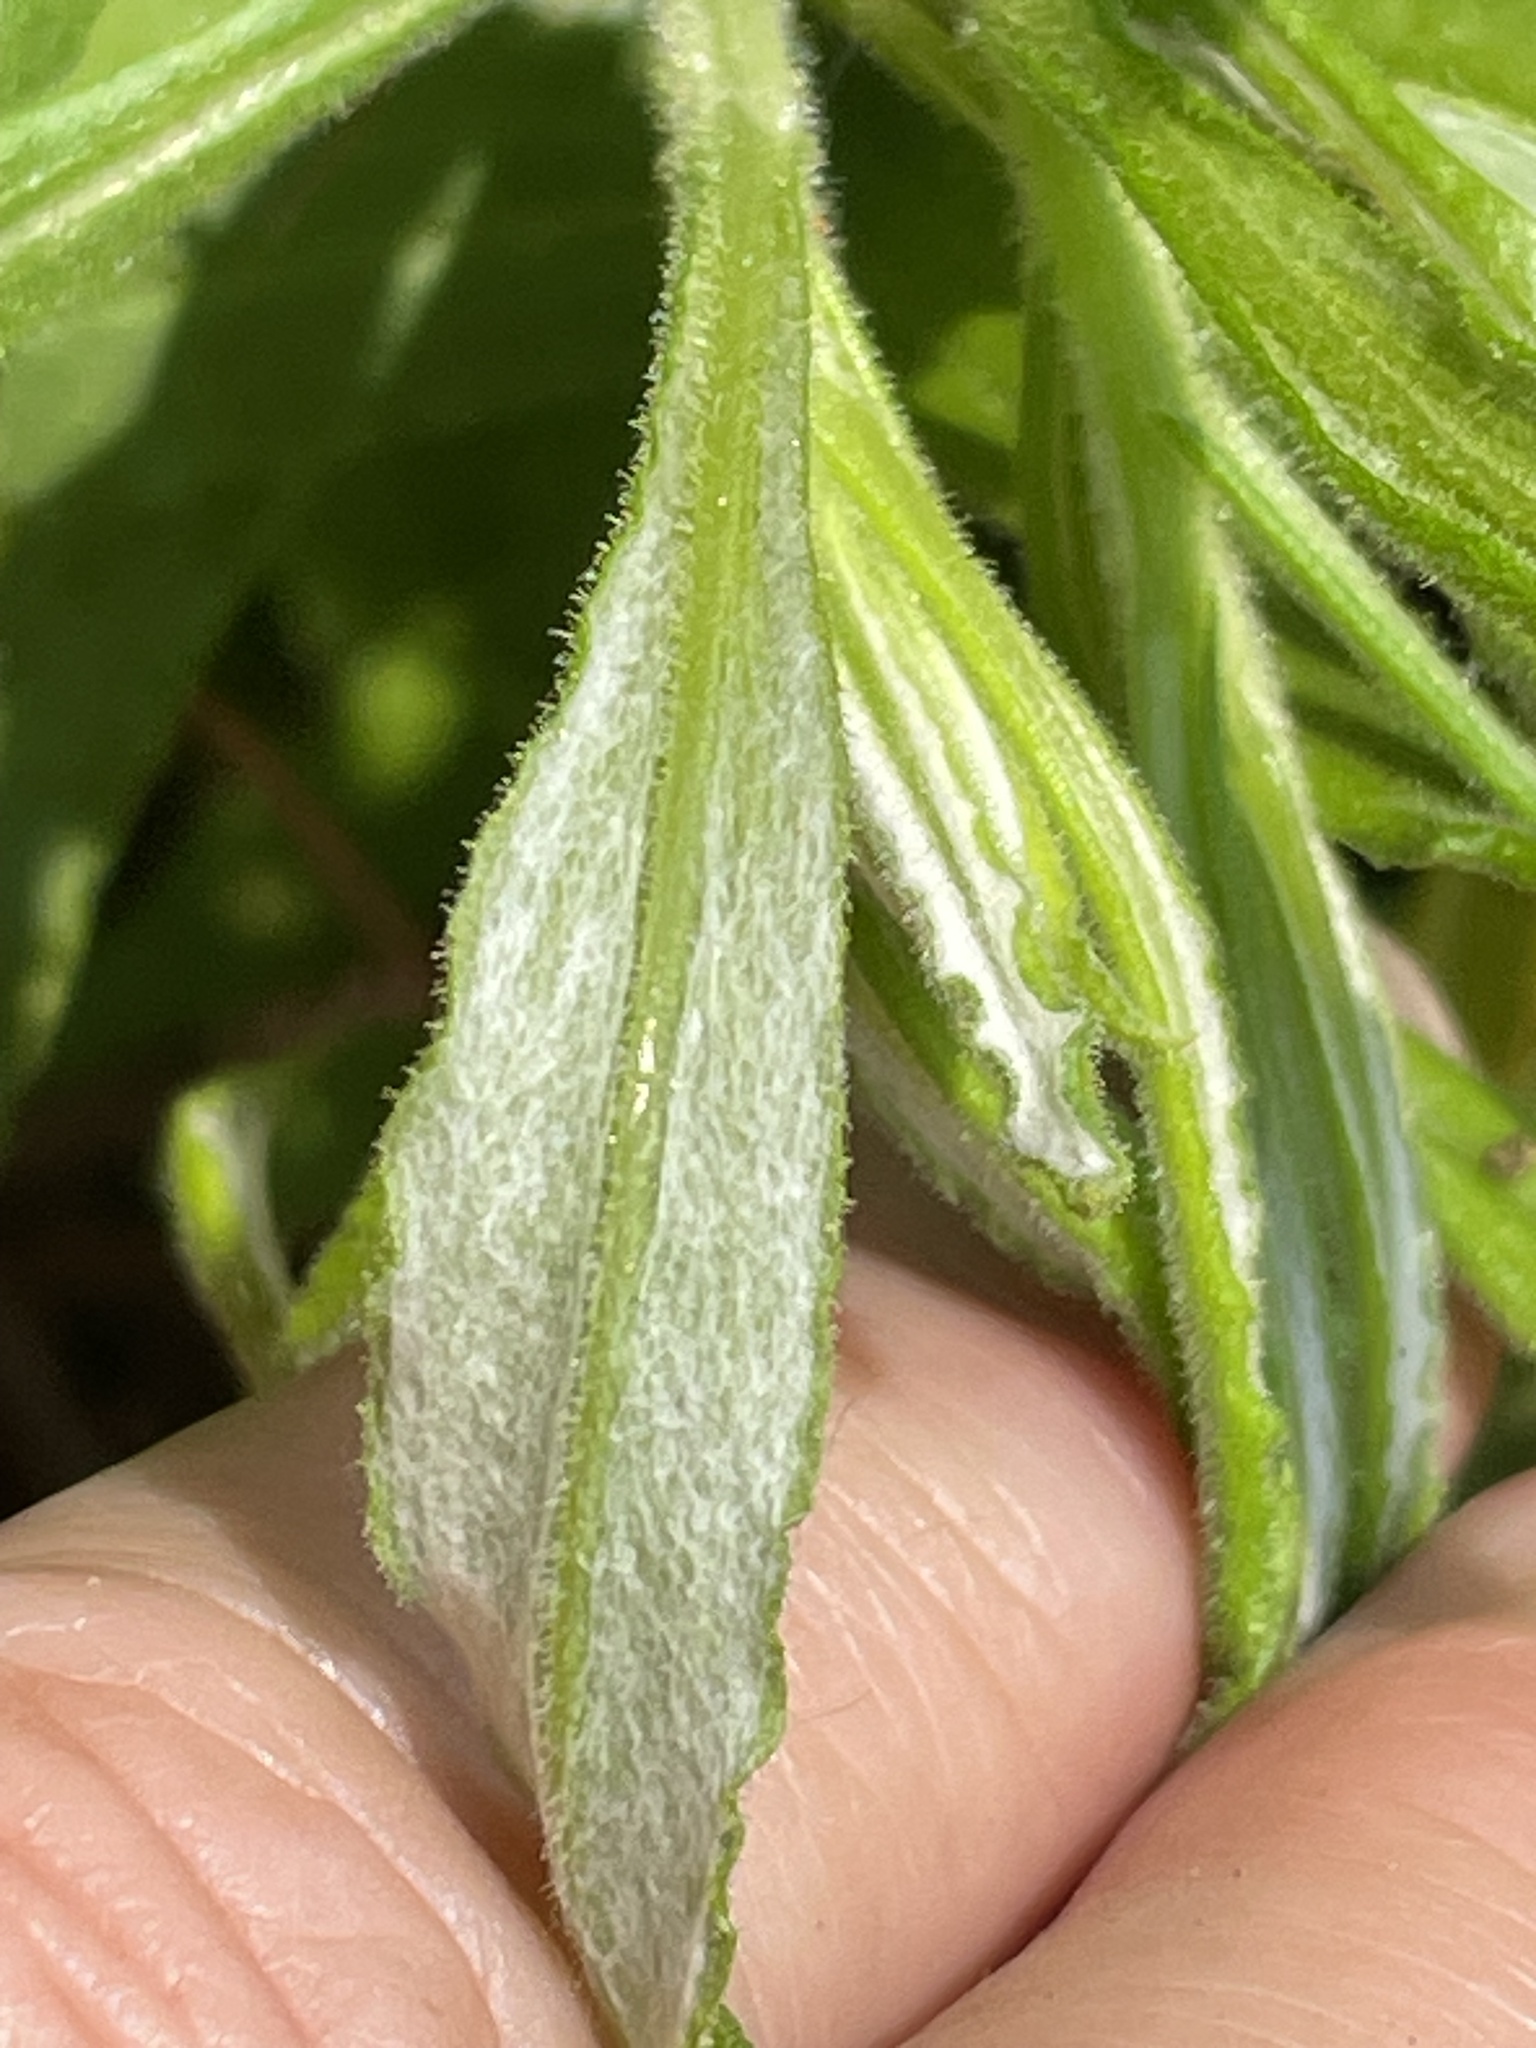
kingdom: Plantae
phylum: Tracheophyta
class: Magnoliopsida
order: Asterales
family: Asteraceae
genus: Pseudognaphalium
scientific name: Pseudognaphalium obtusifolium
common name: Eastern rabbit-tobacco
